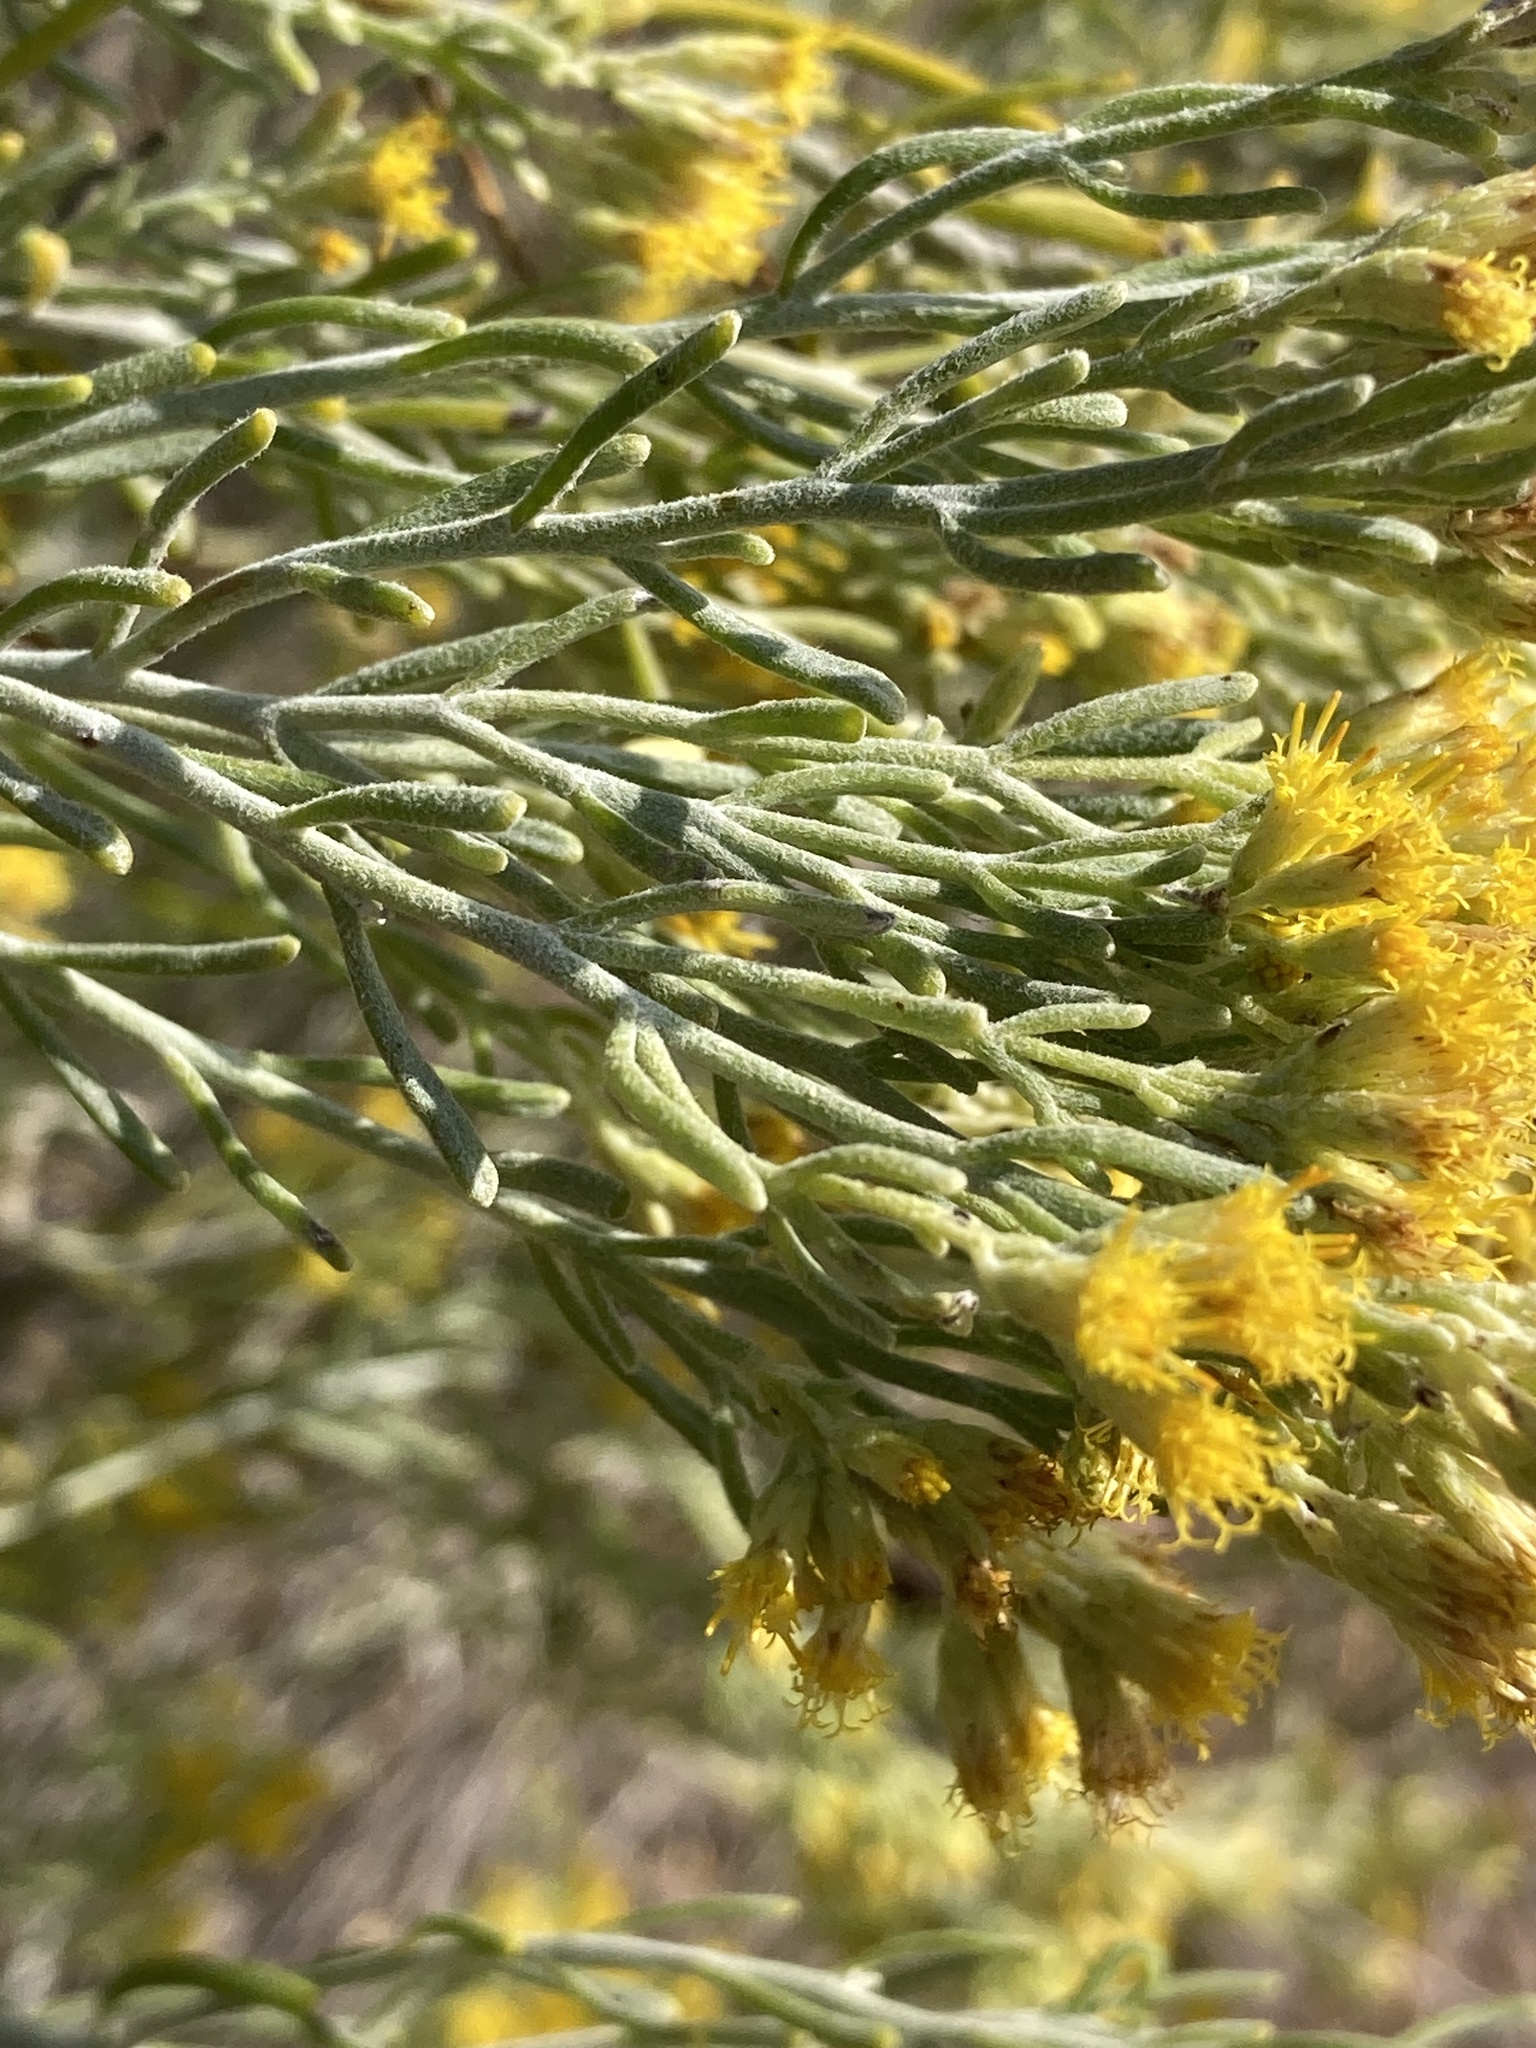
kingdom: Plantae
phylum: Tracheophyta
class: Magnoliopsida
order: Asterales
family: Asteraceae
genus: Schizogyne
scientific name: Schizogyne sericea
